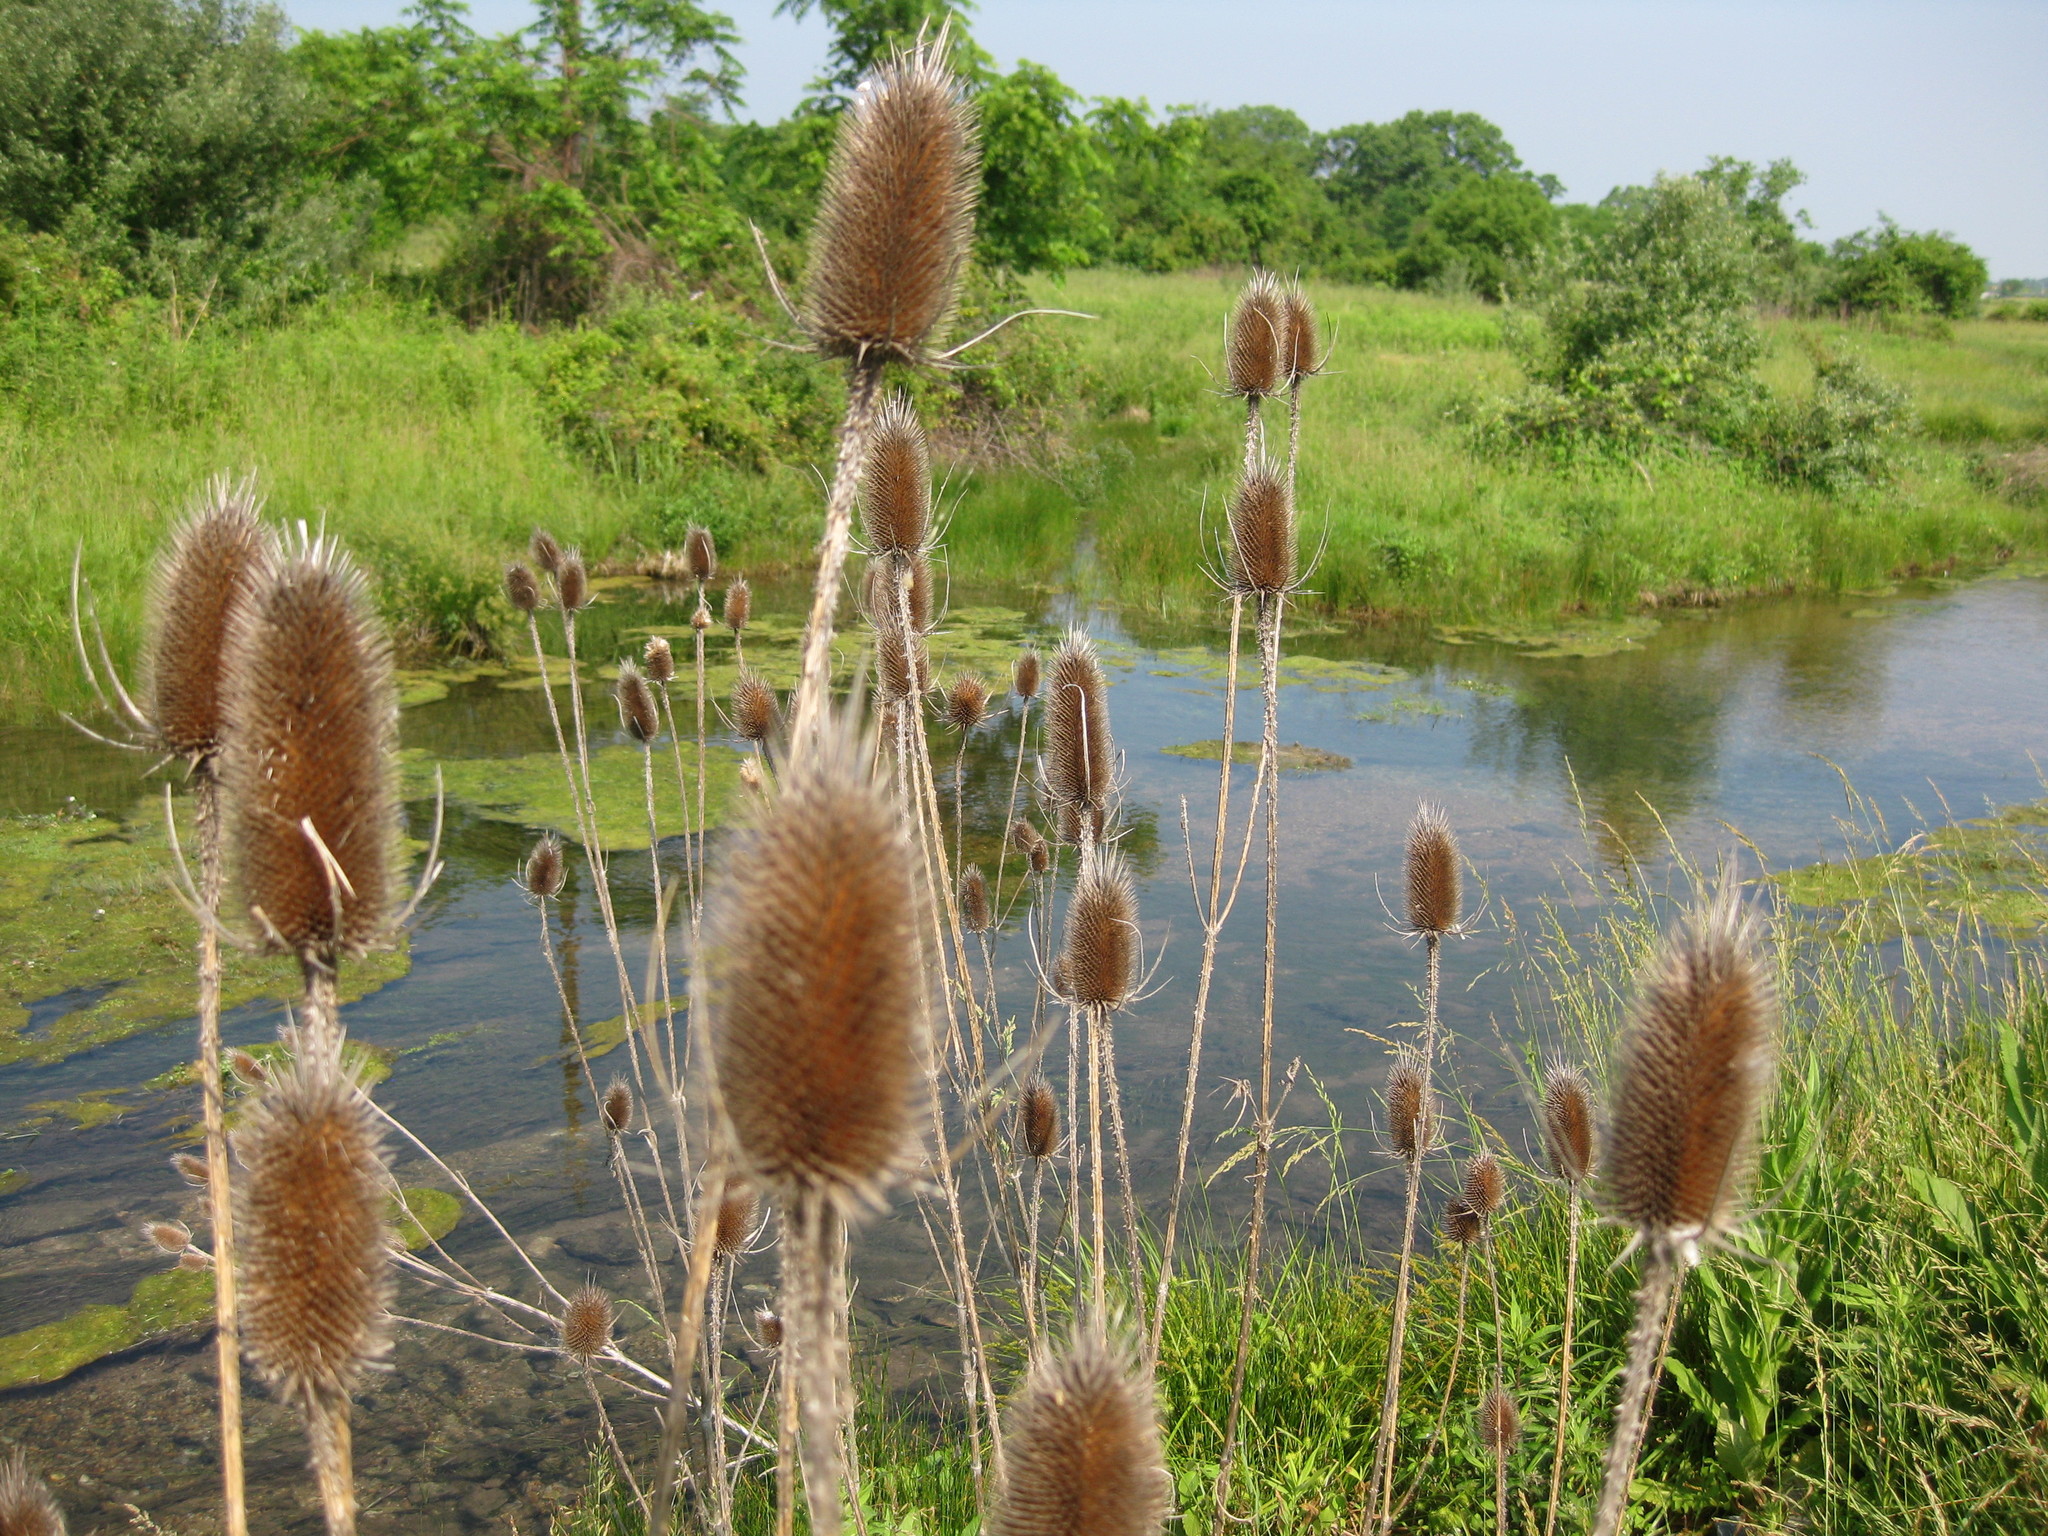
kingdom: Plantae
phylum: Tracheophyta
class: Magnoliopsida
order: Dipsacales
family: Caprifoliaceae
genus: Dipsacus
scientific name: Dipsacus fullonum
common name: Teasel
